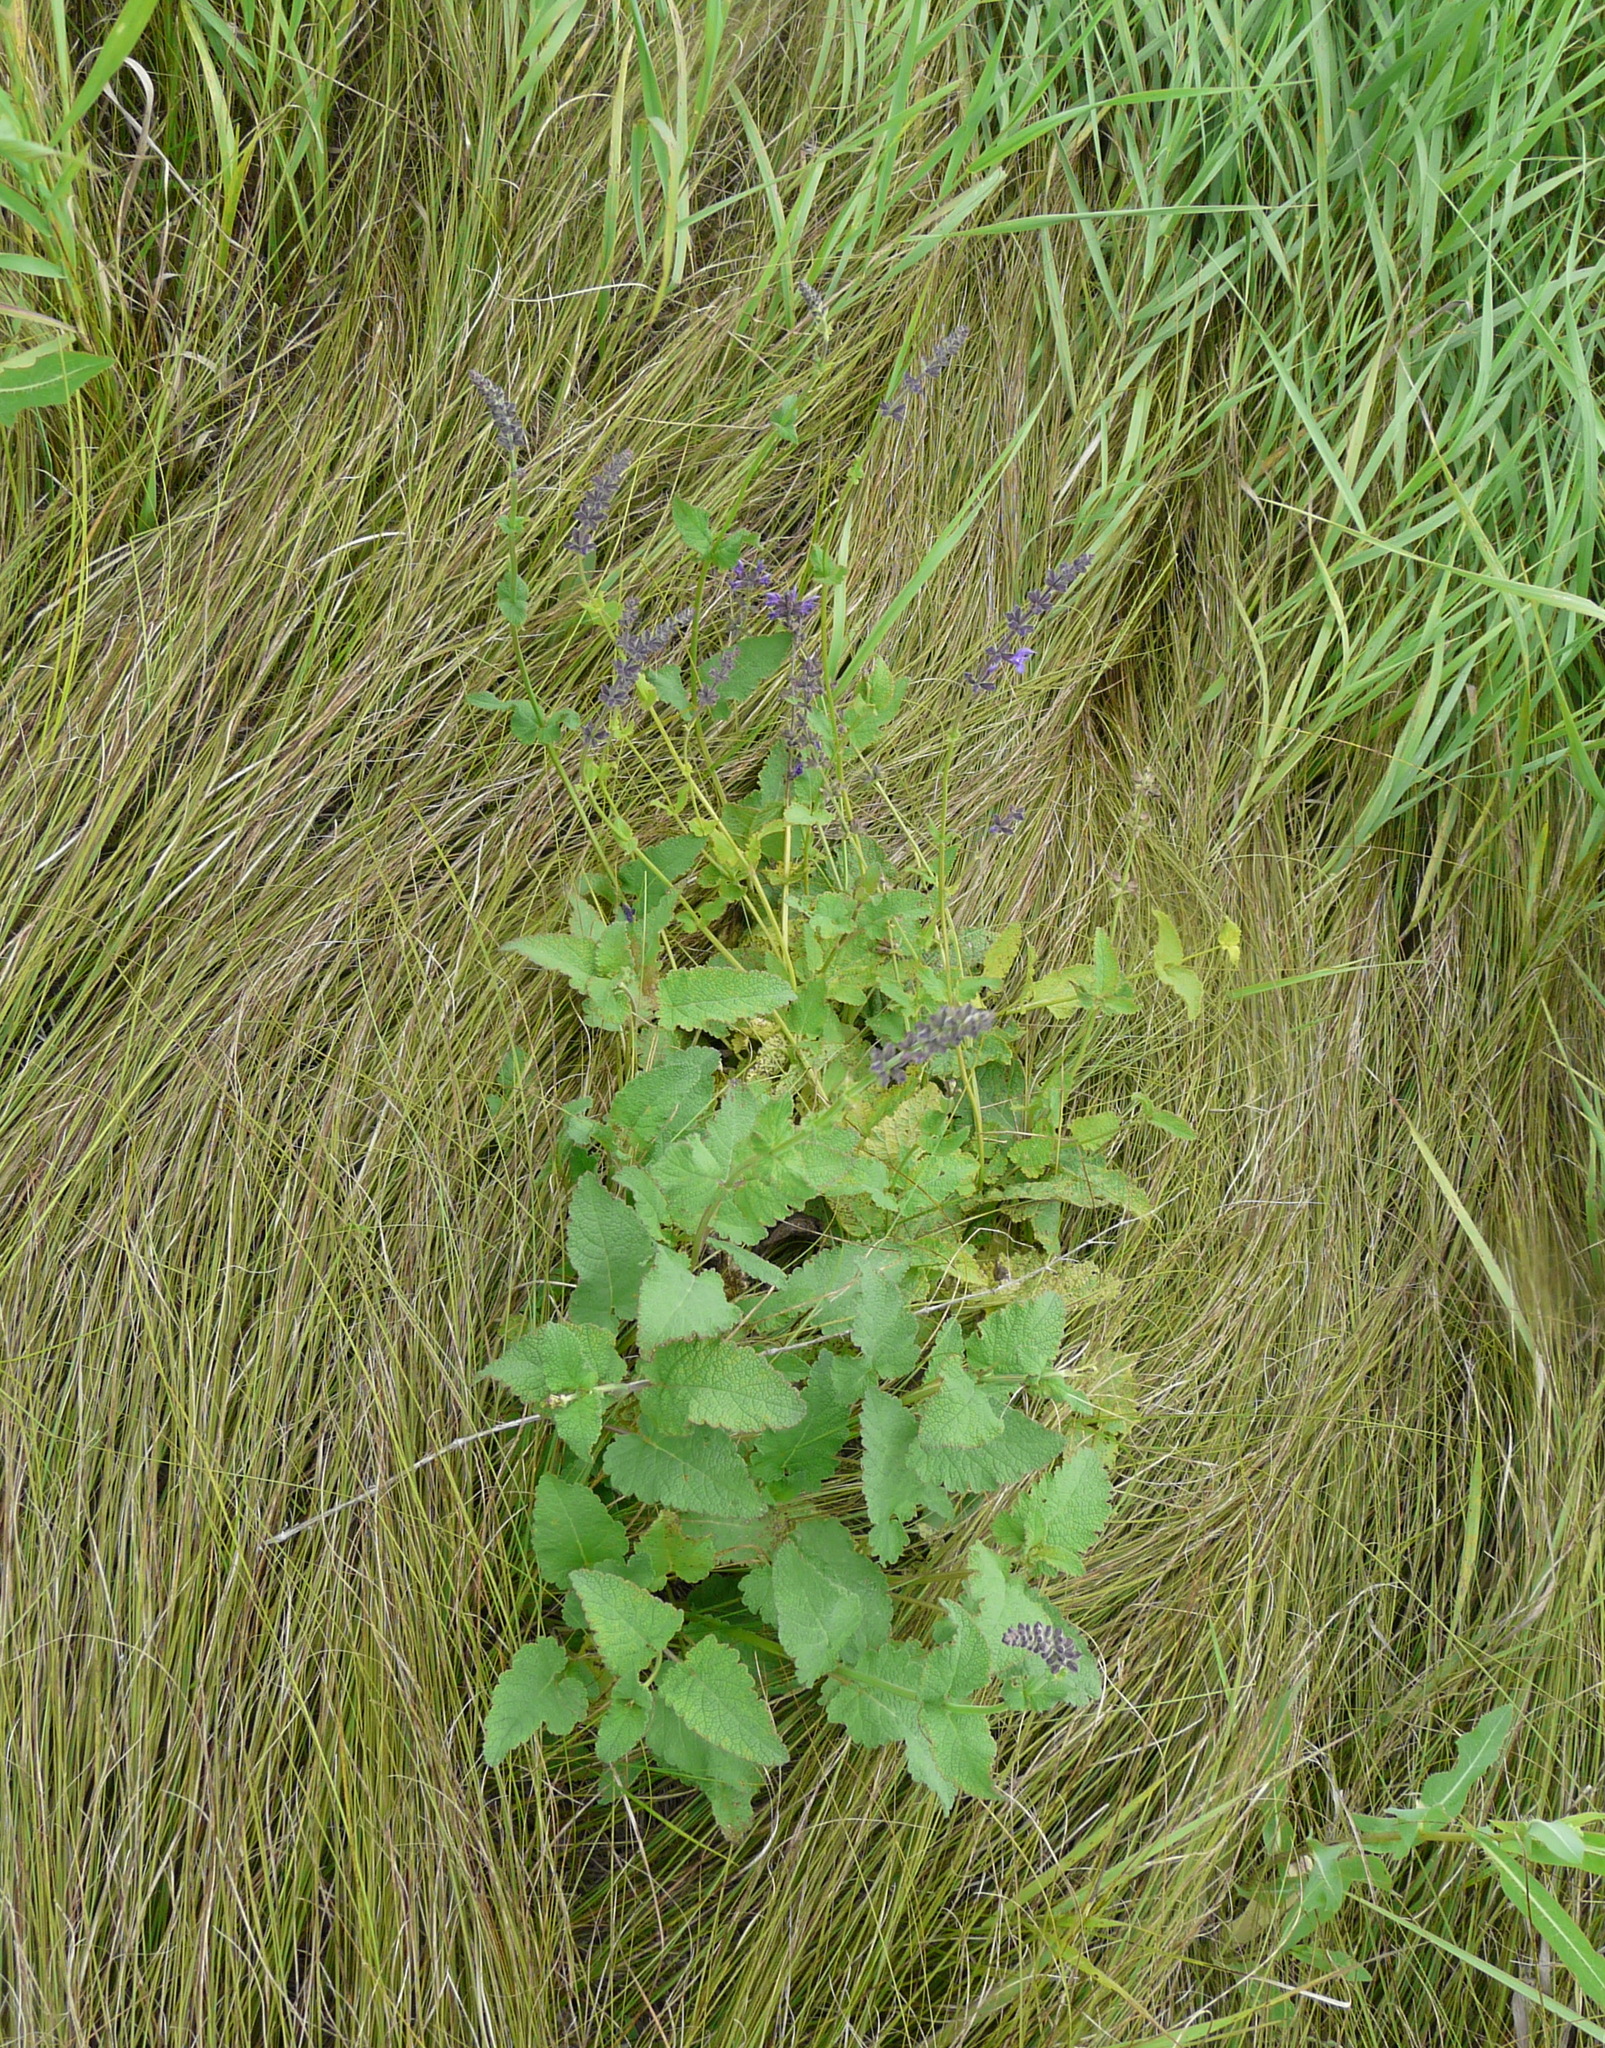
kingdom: Plantae
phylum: Tracheophyta
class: Magnoliopsida
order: Lamiales
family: Lamiaceae
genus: Salvia
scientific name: Salvia dumetorum
